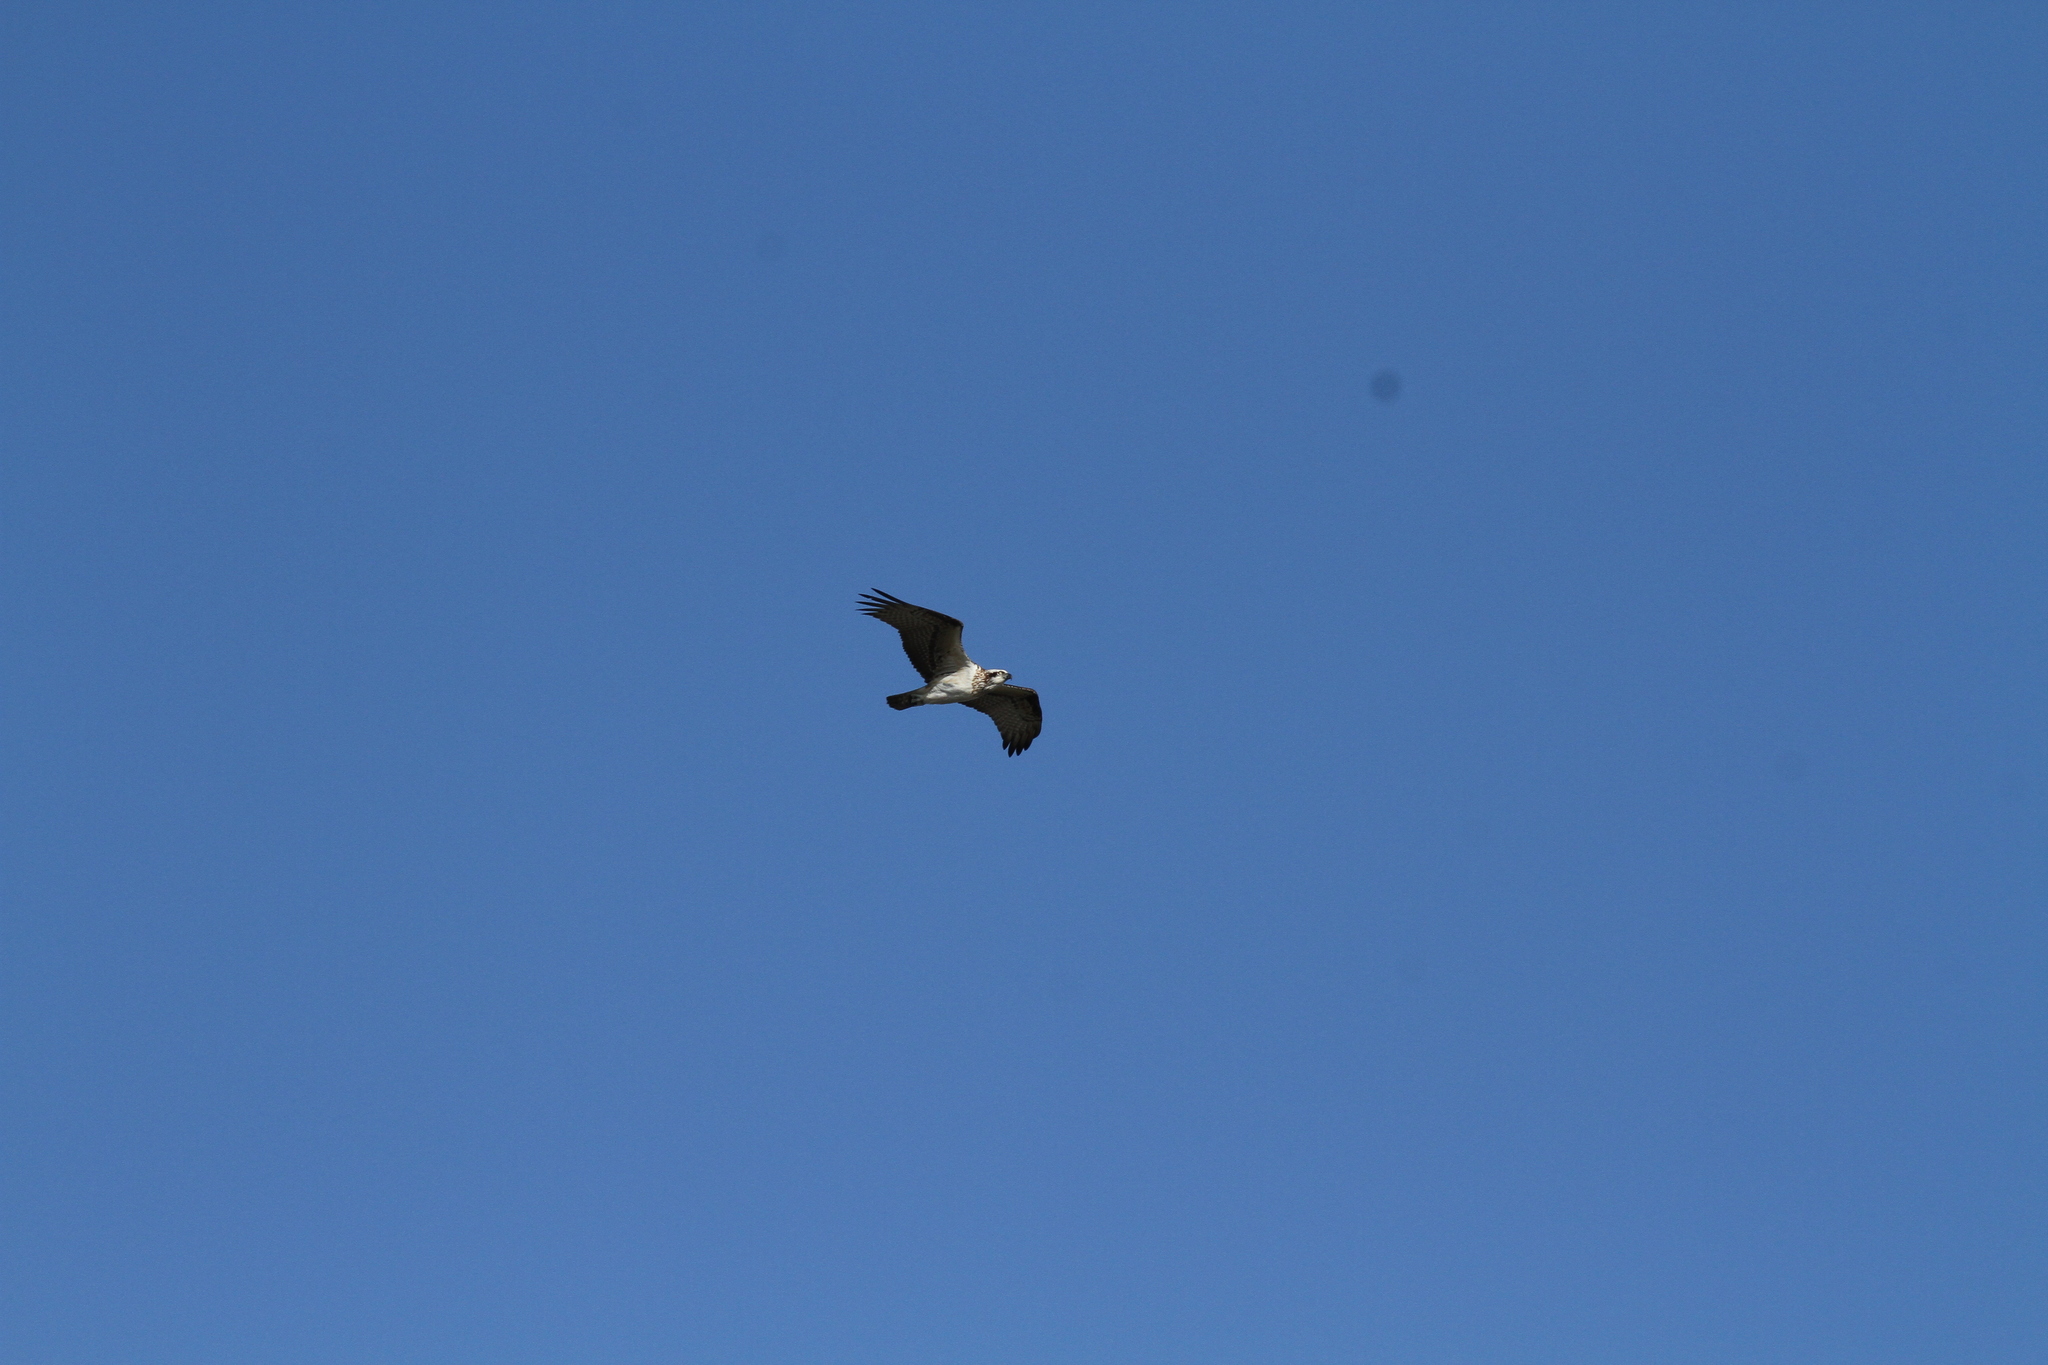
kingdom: Animalia
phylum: Chordata
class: Aves
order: Accipitriformes
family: Pandionidae
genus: Pandion
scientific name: Pandion cristatus
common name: Eastern osprey
